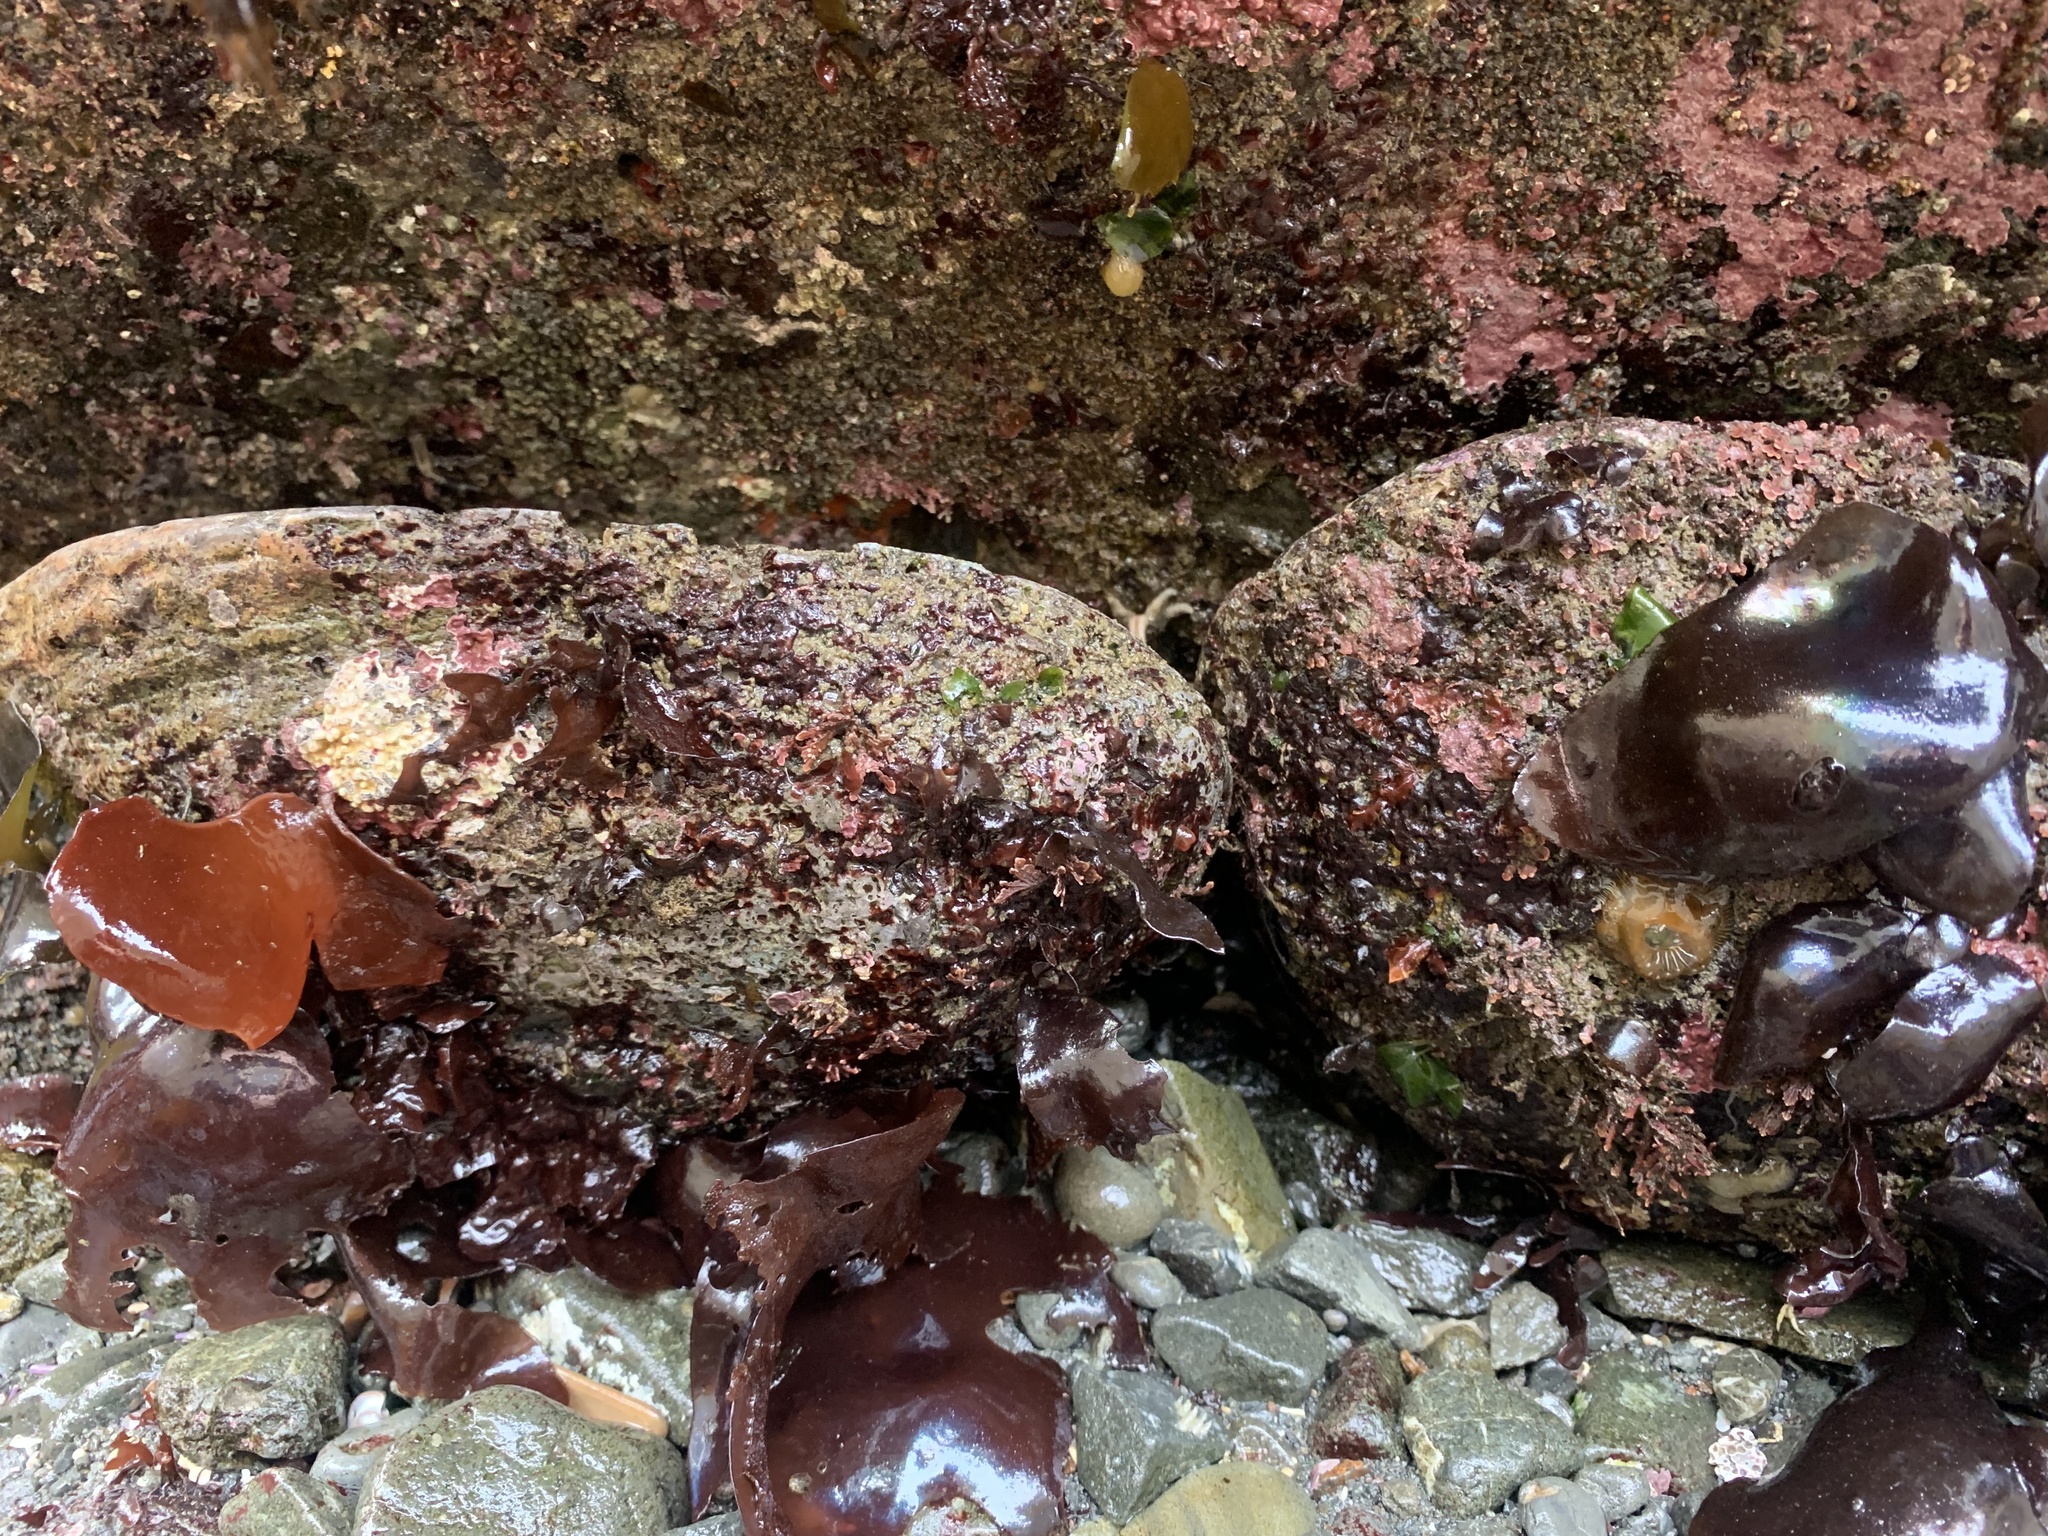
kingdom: Animalia
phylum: Mollusca
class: Gastropoda
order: Lepetellida
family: Haliotidae
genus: Haliotis
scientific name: Haliotis rufescens
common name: Red abalone
